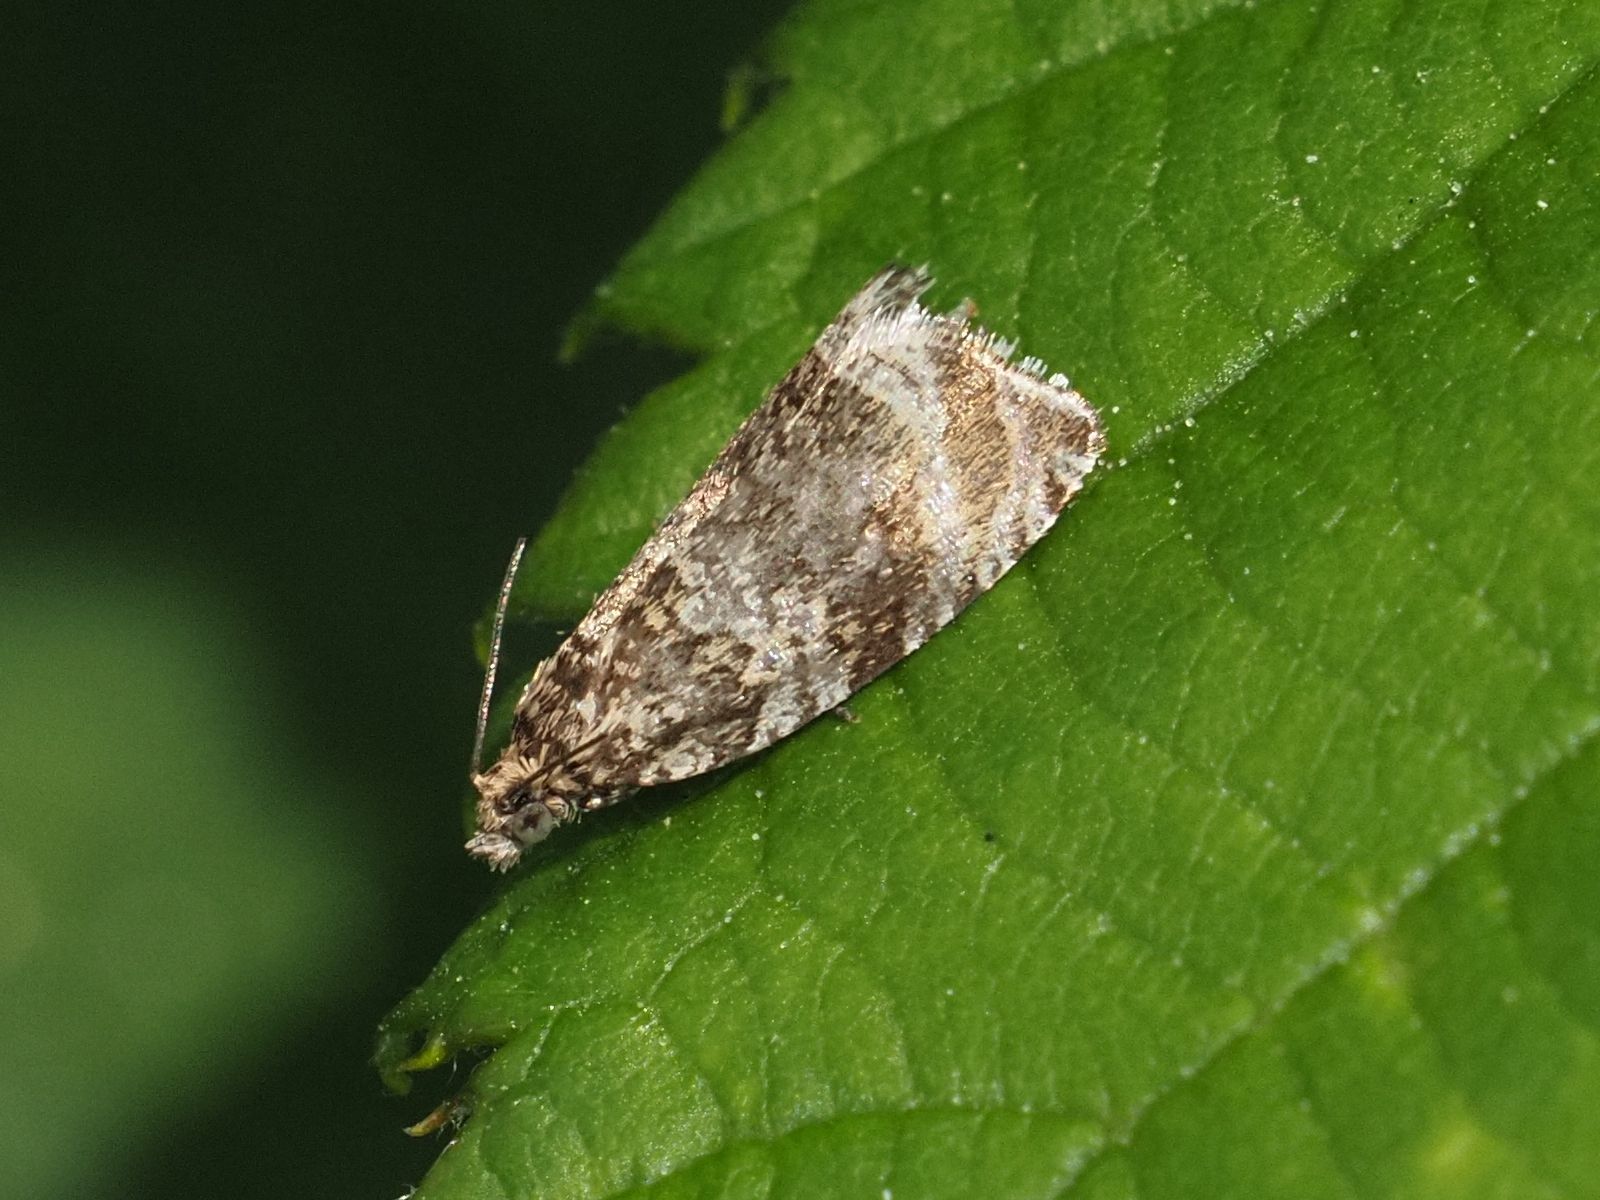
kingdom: Animalia
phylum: Arthropoda
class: Insecta
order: Lepidoptera
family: Tortricidae
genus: Syricoris
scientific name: Syricoris lacunana
